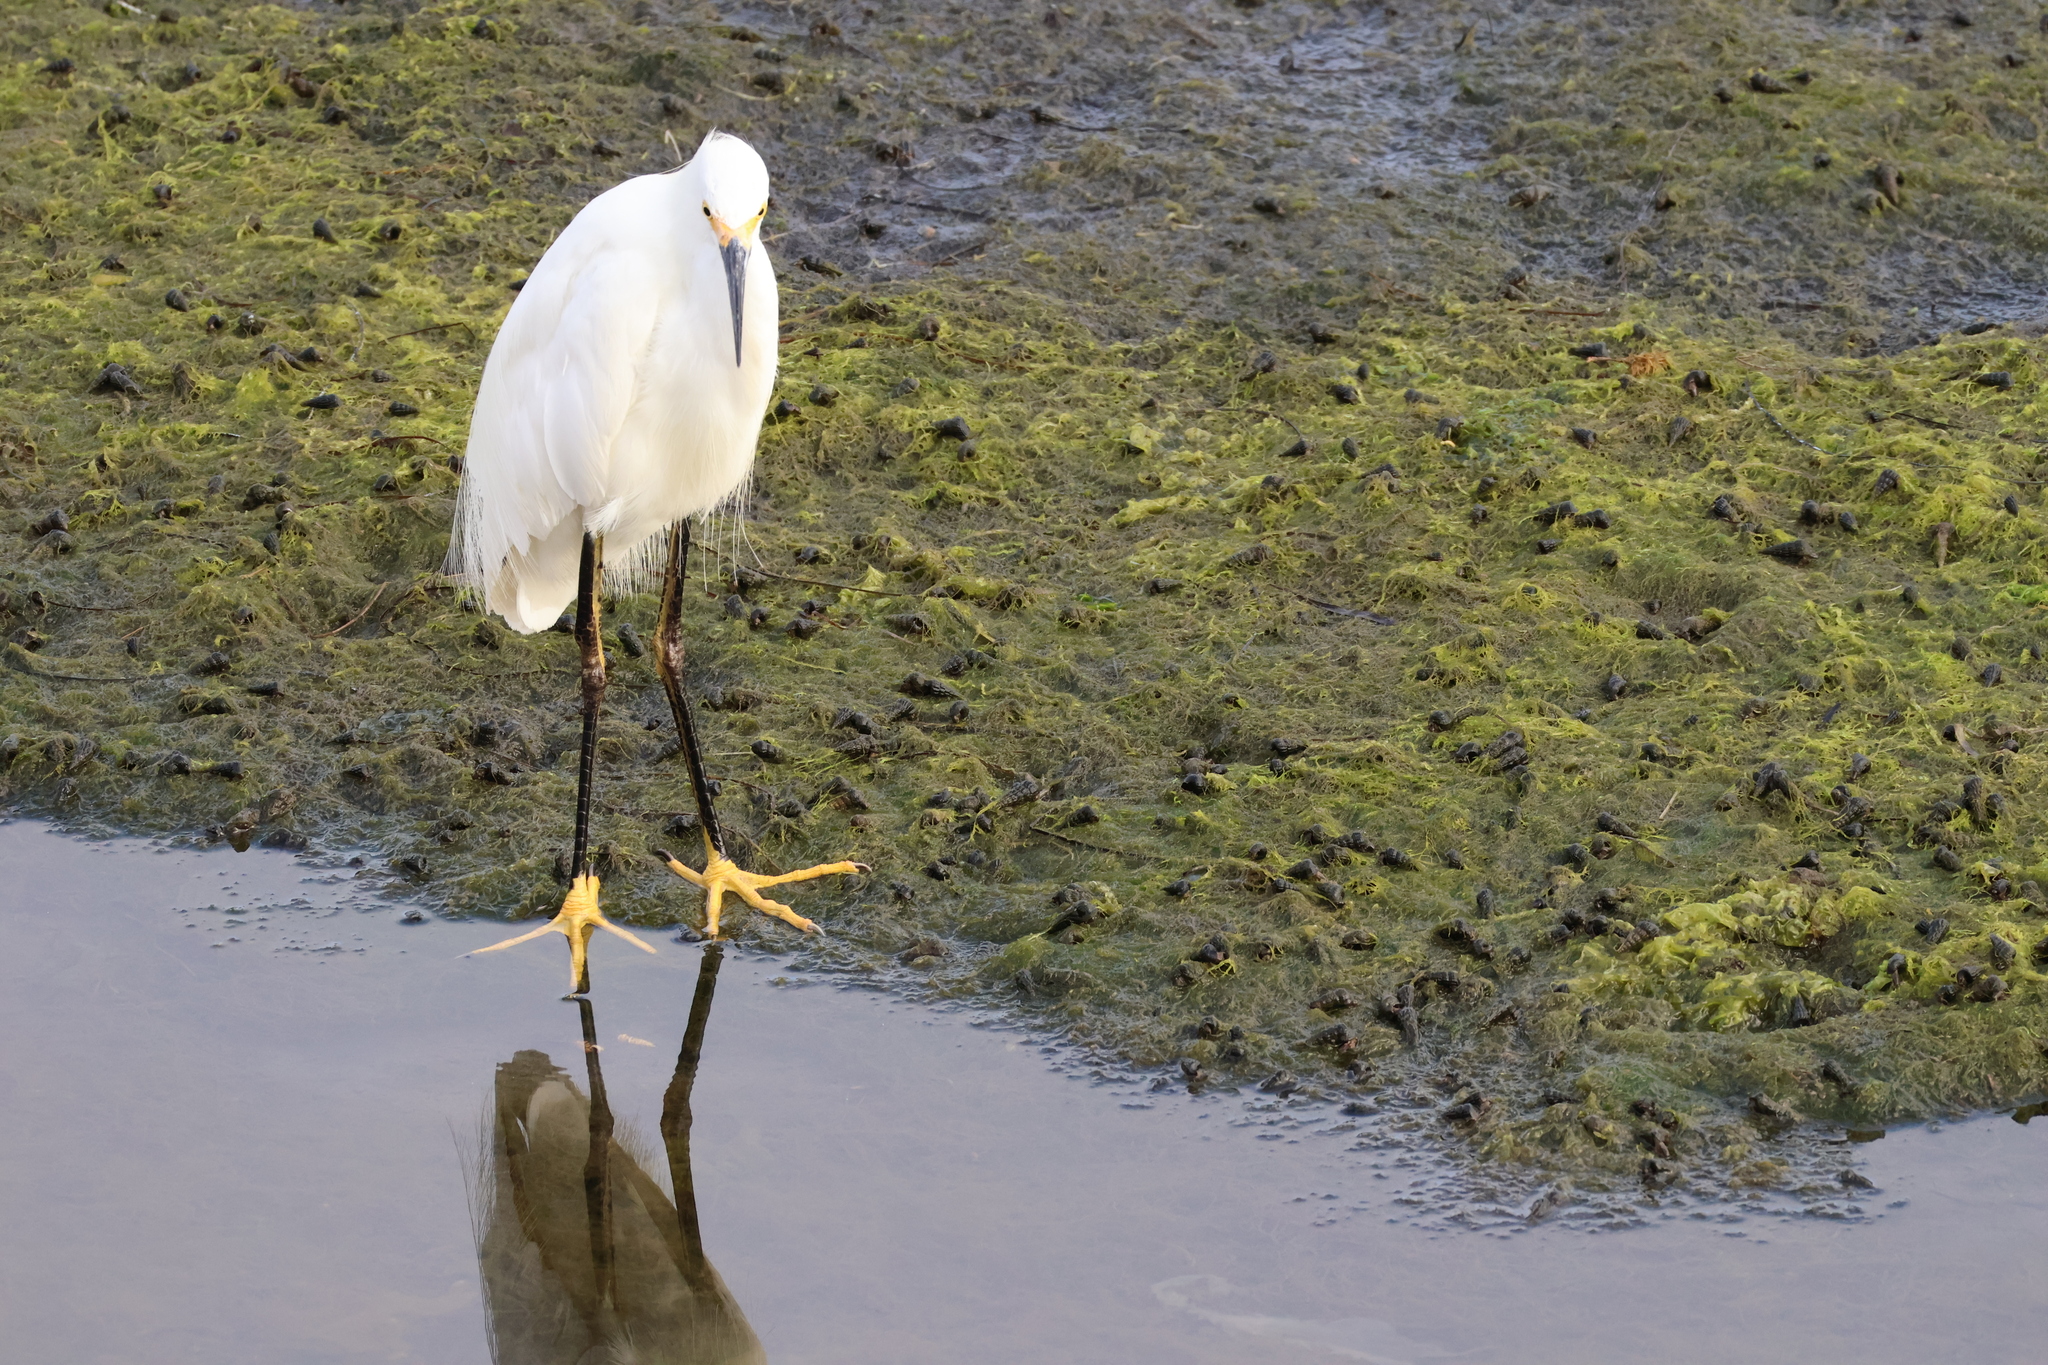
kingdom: Animalia
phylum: Chordata
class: Aves
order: Pelecaniformes
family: Ardeidae
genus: Egretta
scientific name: Egretta thula
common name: Snowy egret
